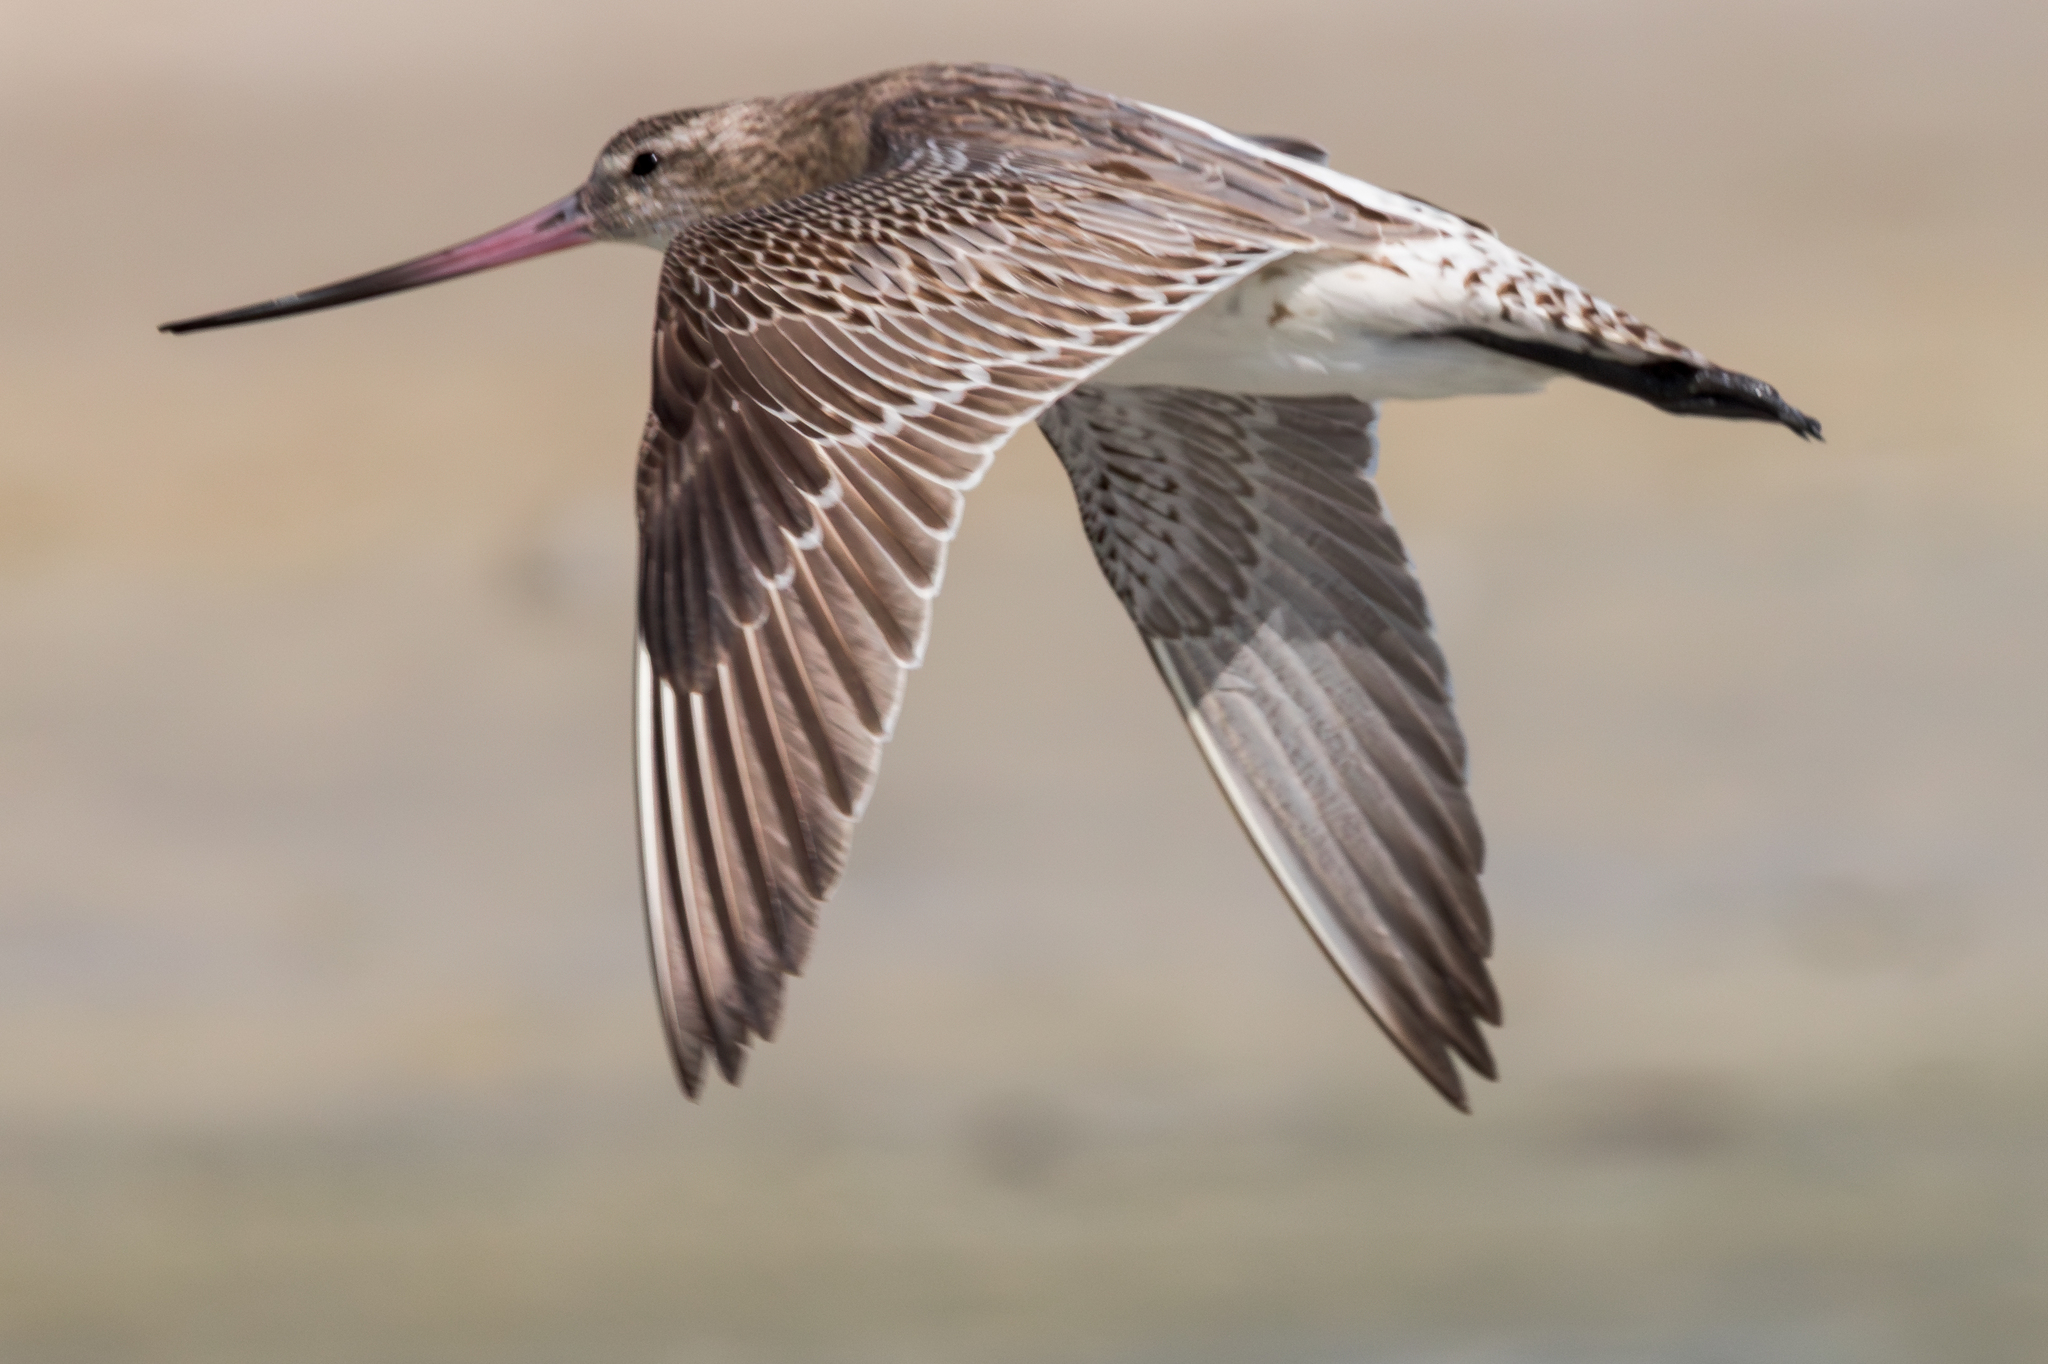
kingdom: Animalia
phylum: Chordata
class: Aves
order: Charadriiformes
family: Scolopacidae
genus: Limosa
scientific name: Limosa lapponica
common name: Bar-tailed godwit
